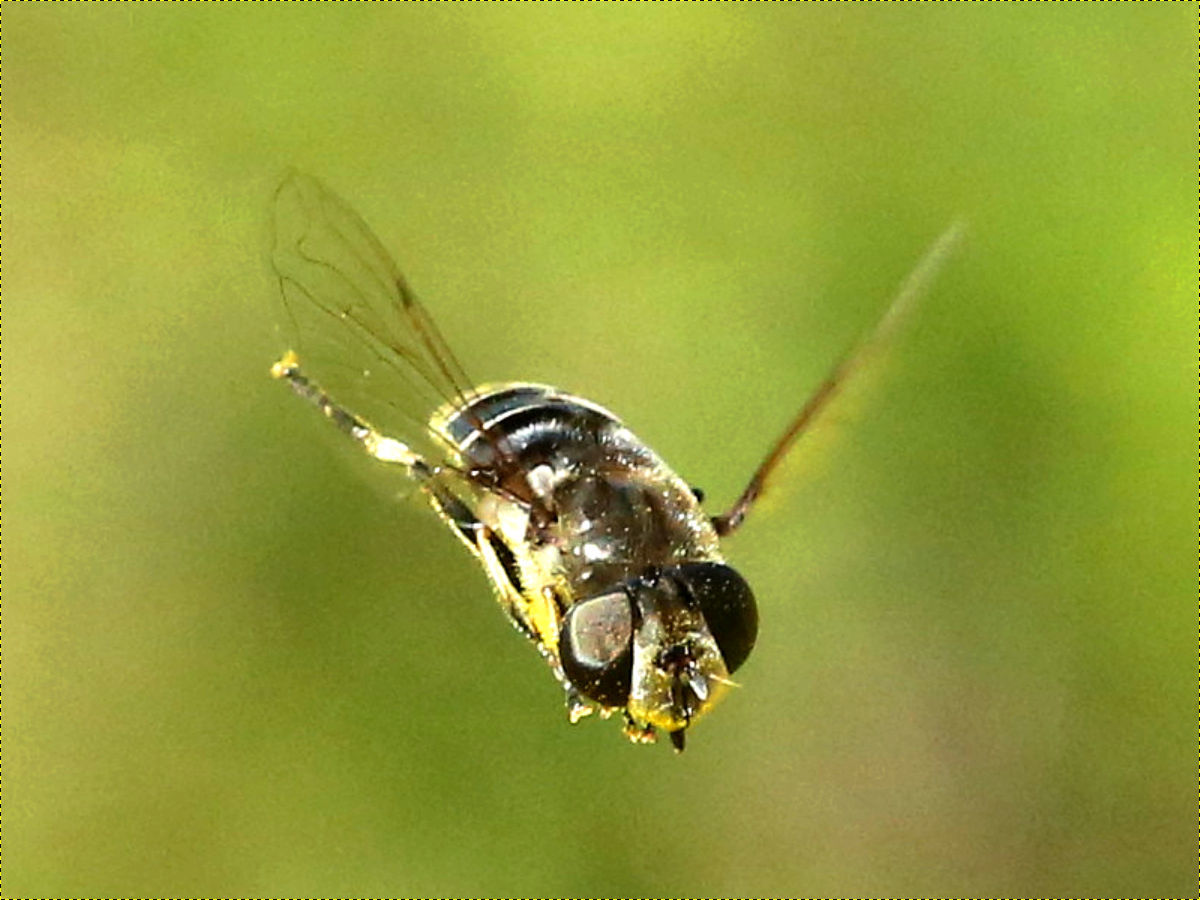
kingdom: Animalia
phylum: Arthropoda
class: Insecta
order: Diptera
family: Syrphidae
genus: Eristalis
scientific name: Eristalis dimidiata
